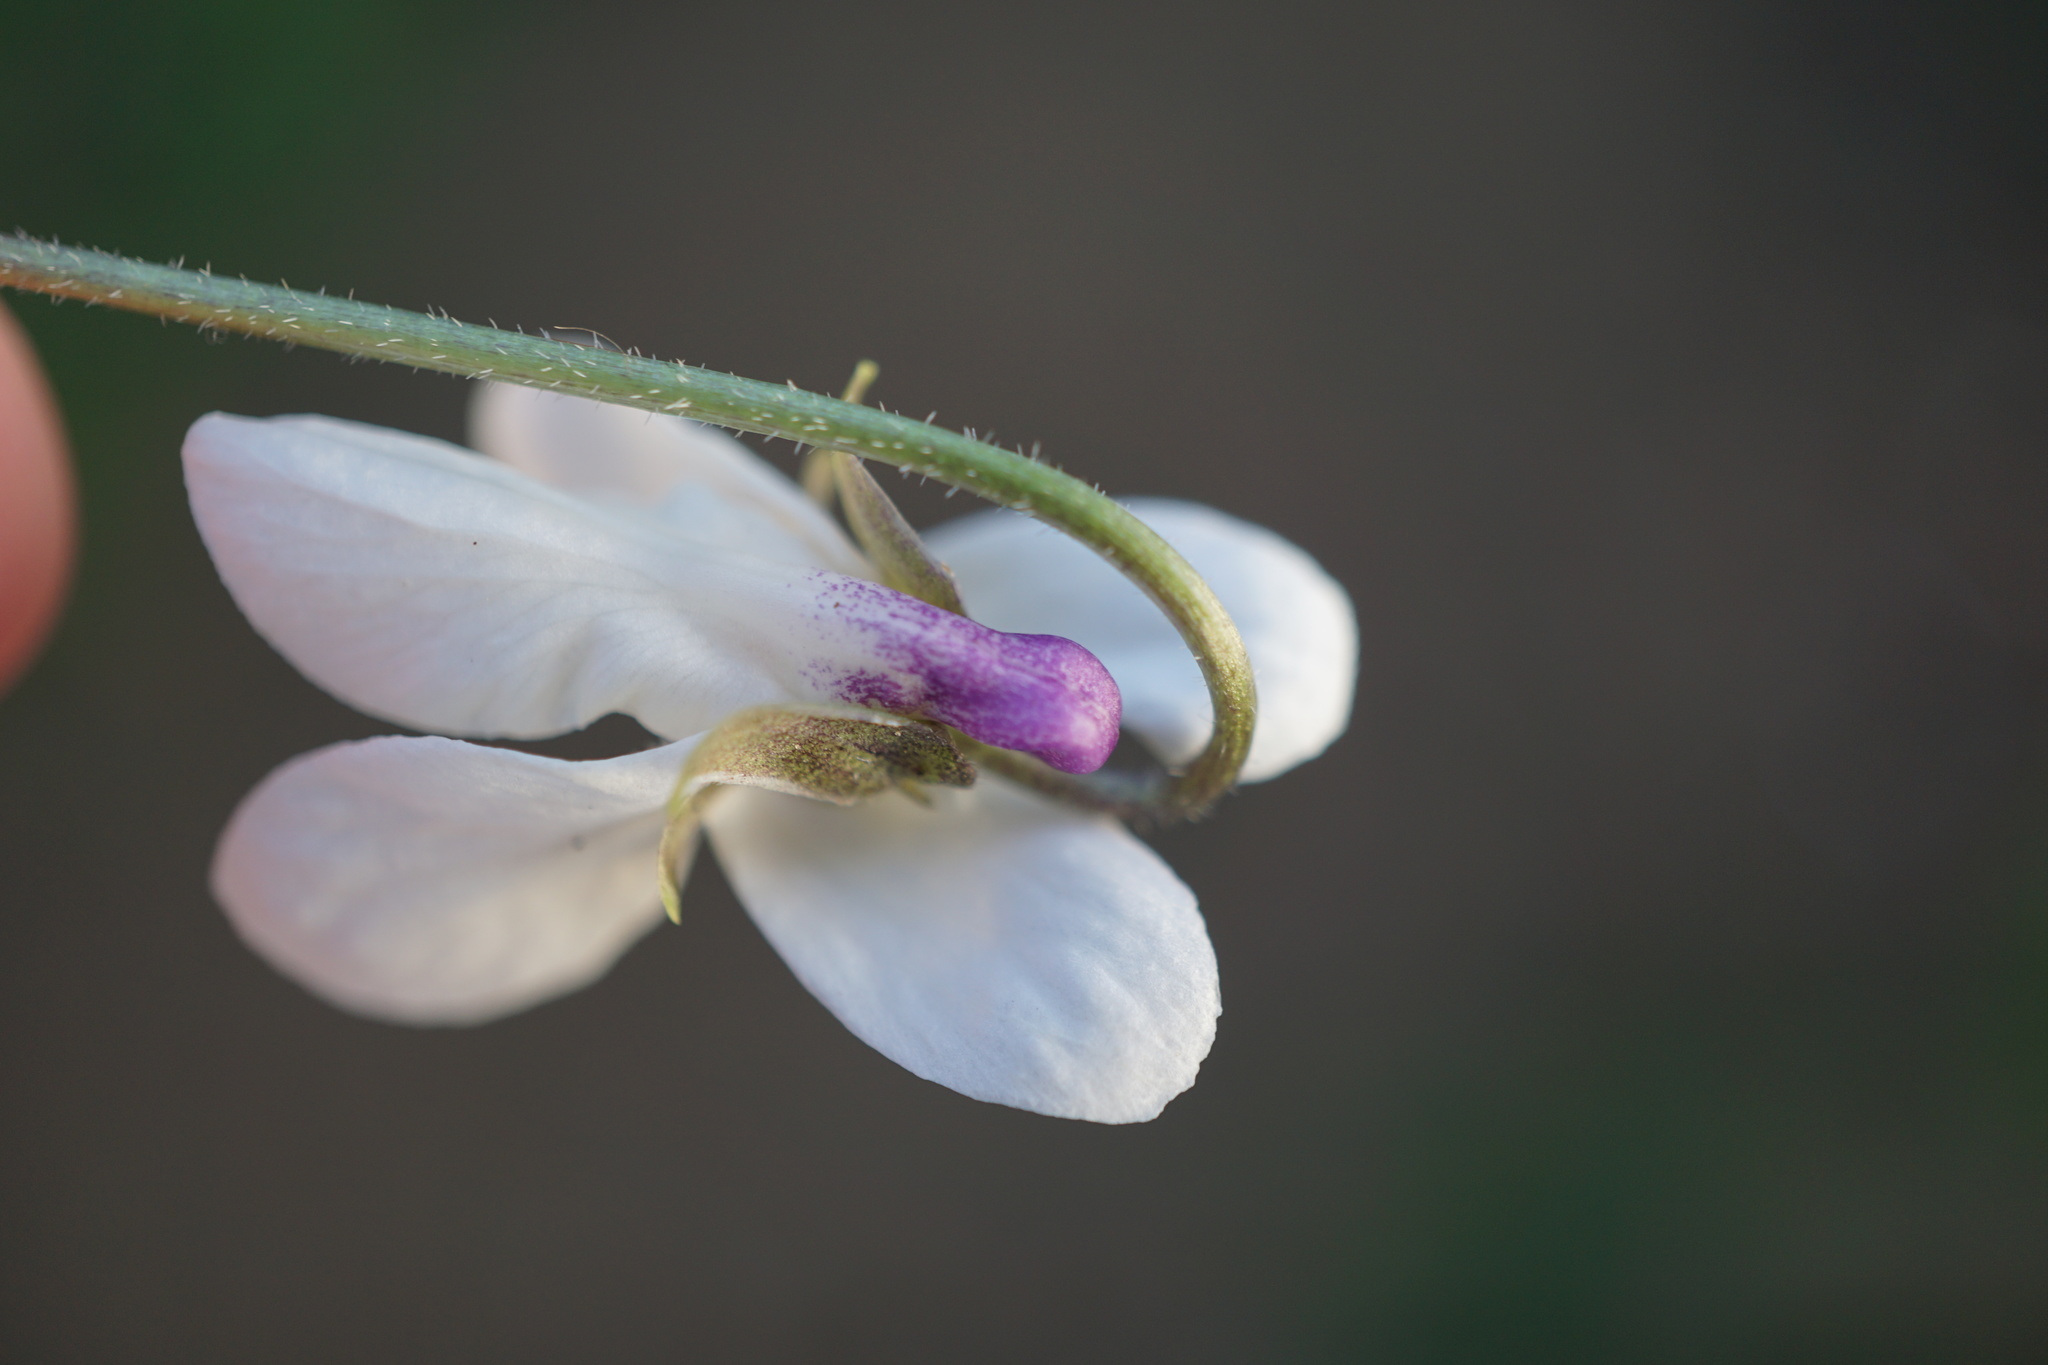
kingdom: Plantae
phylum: Tracheophyta
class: Magnoliopsida
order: Malpighiales
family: Violaceae
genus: Viola
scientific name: Viola odorata
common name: Sweet violet
